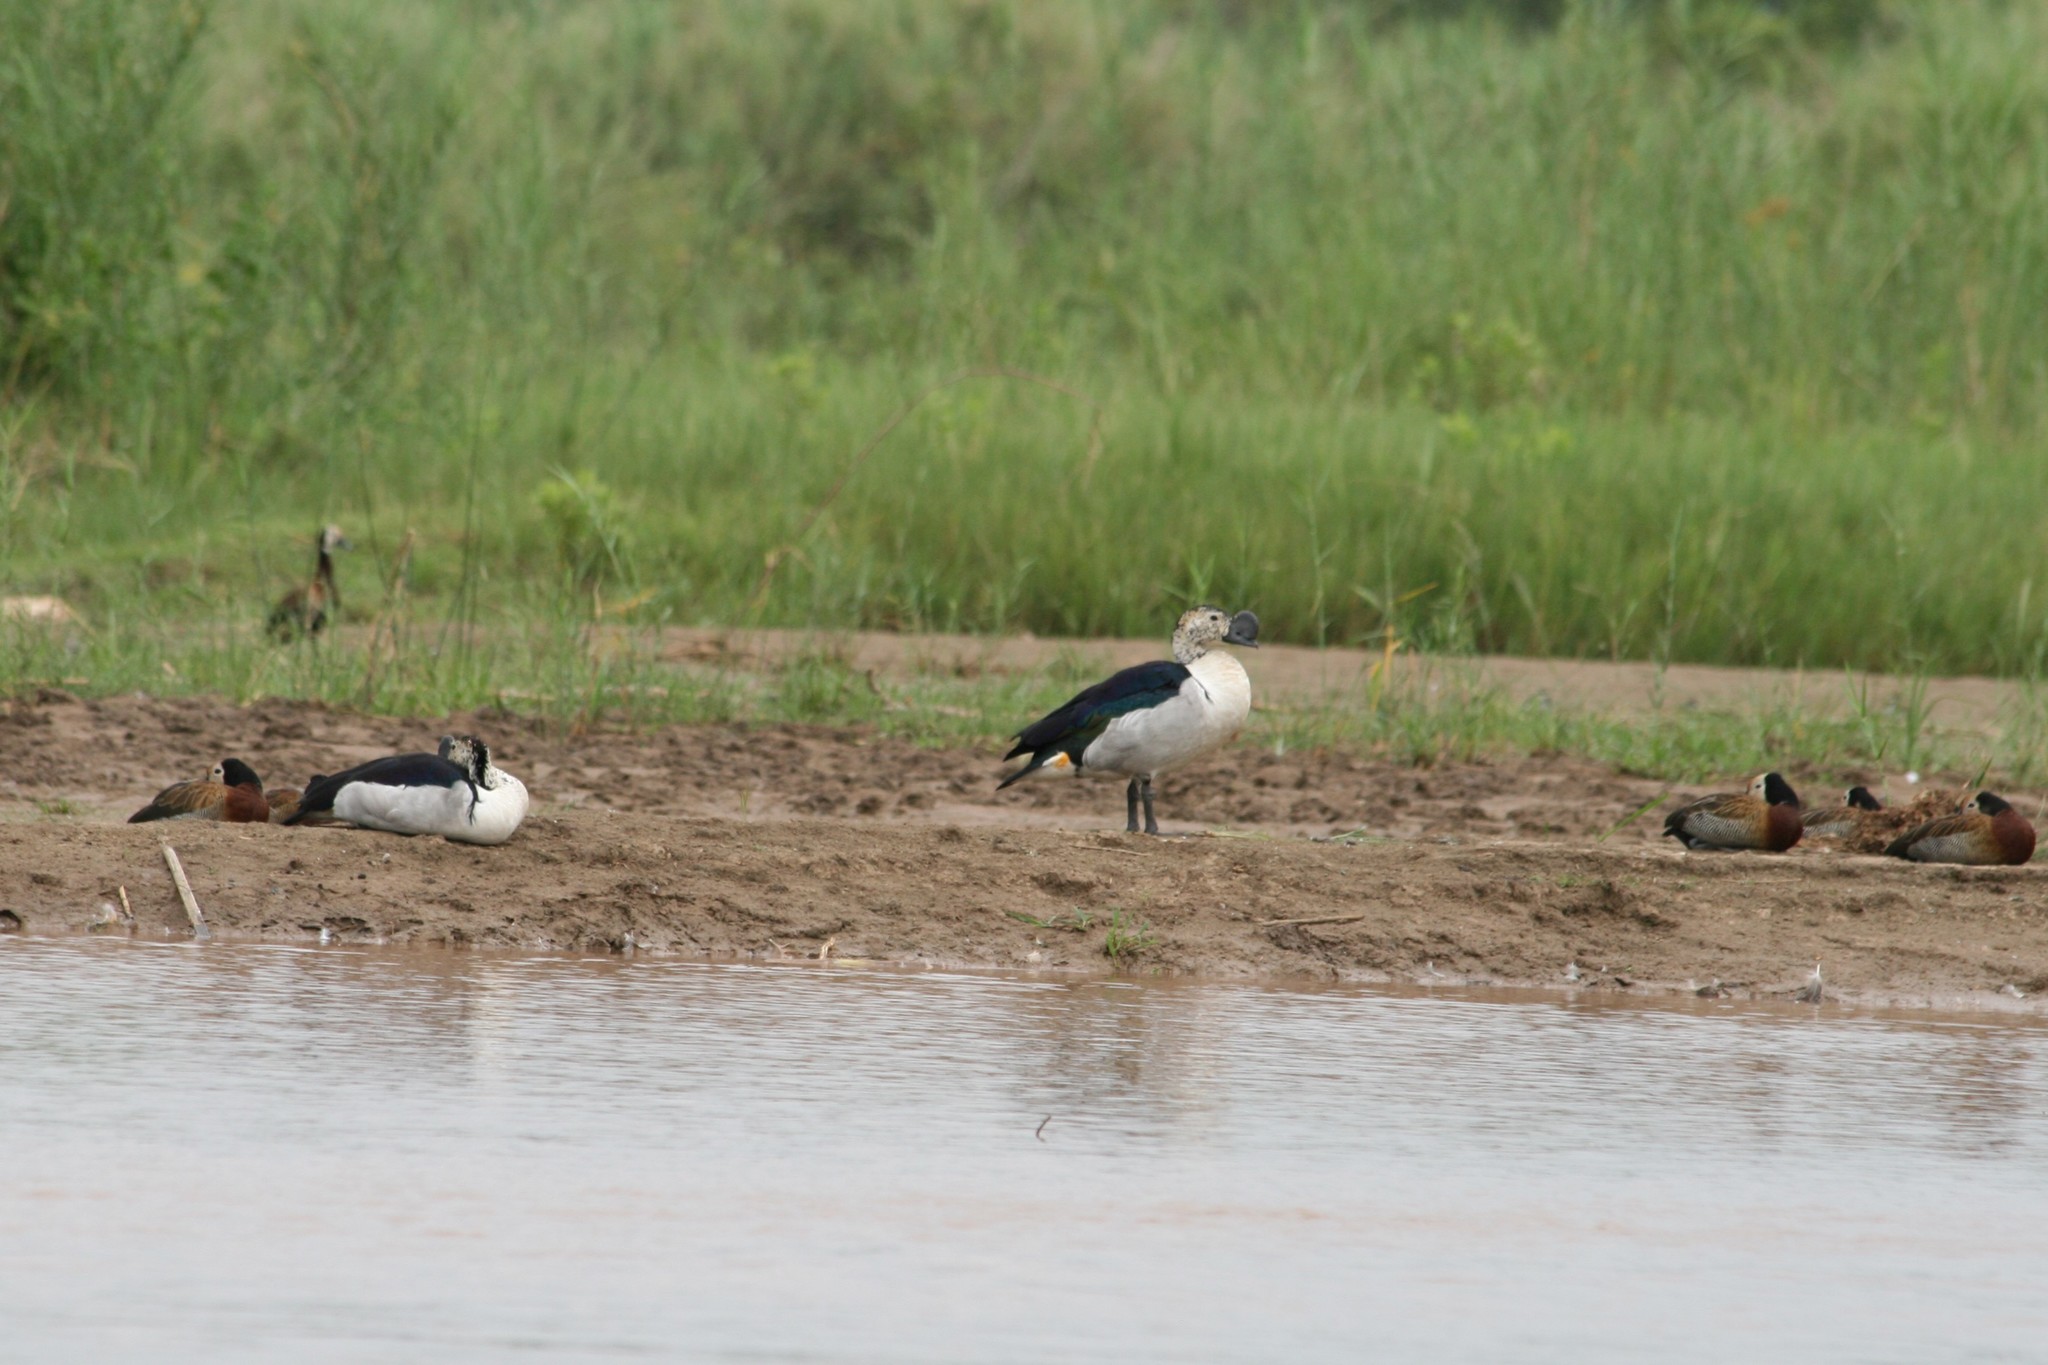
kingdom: Animalia
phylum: Chordata
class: Aves
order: Anseriformes
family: Anatidae
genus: Sarkidiornis
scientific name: Sarkidiornis melanotos
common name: Comb duck
